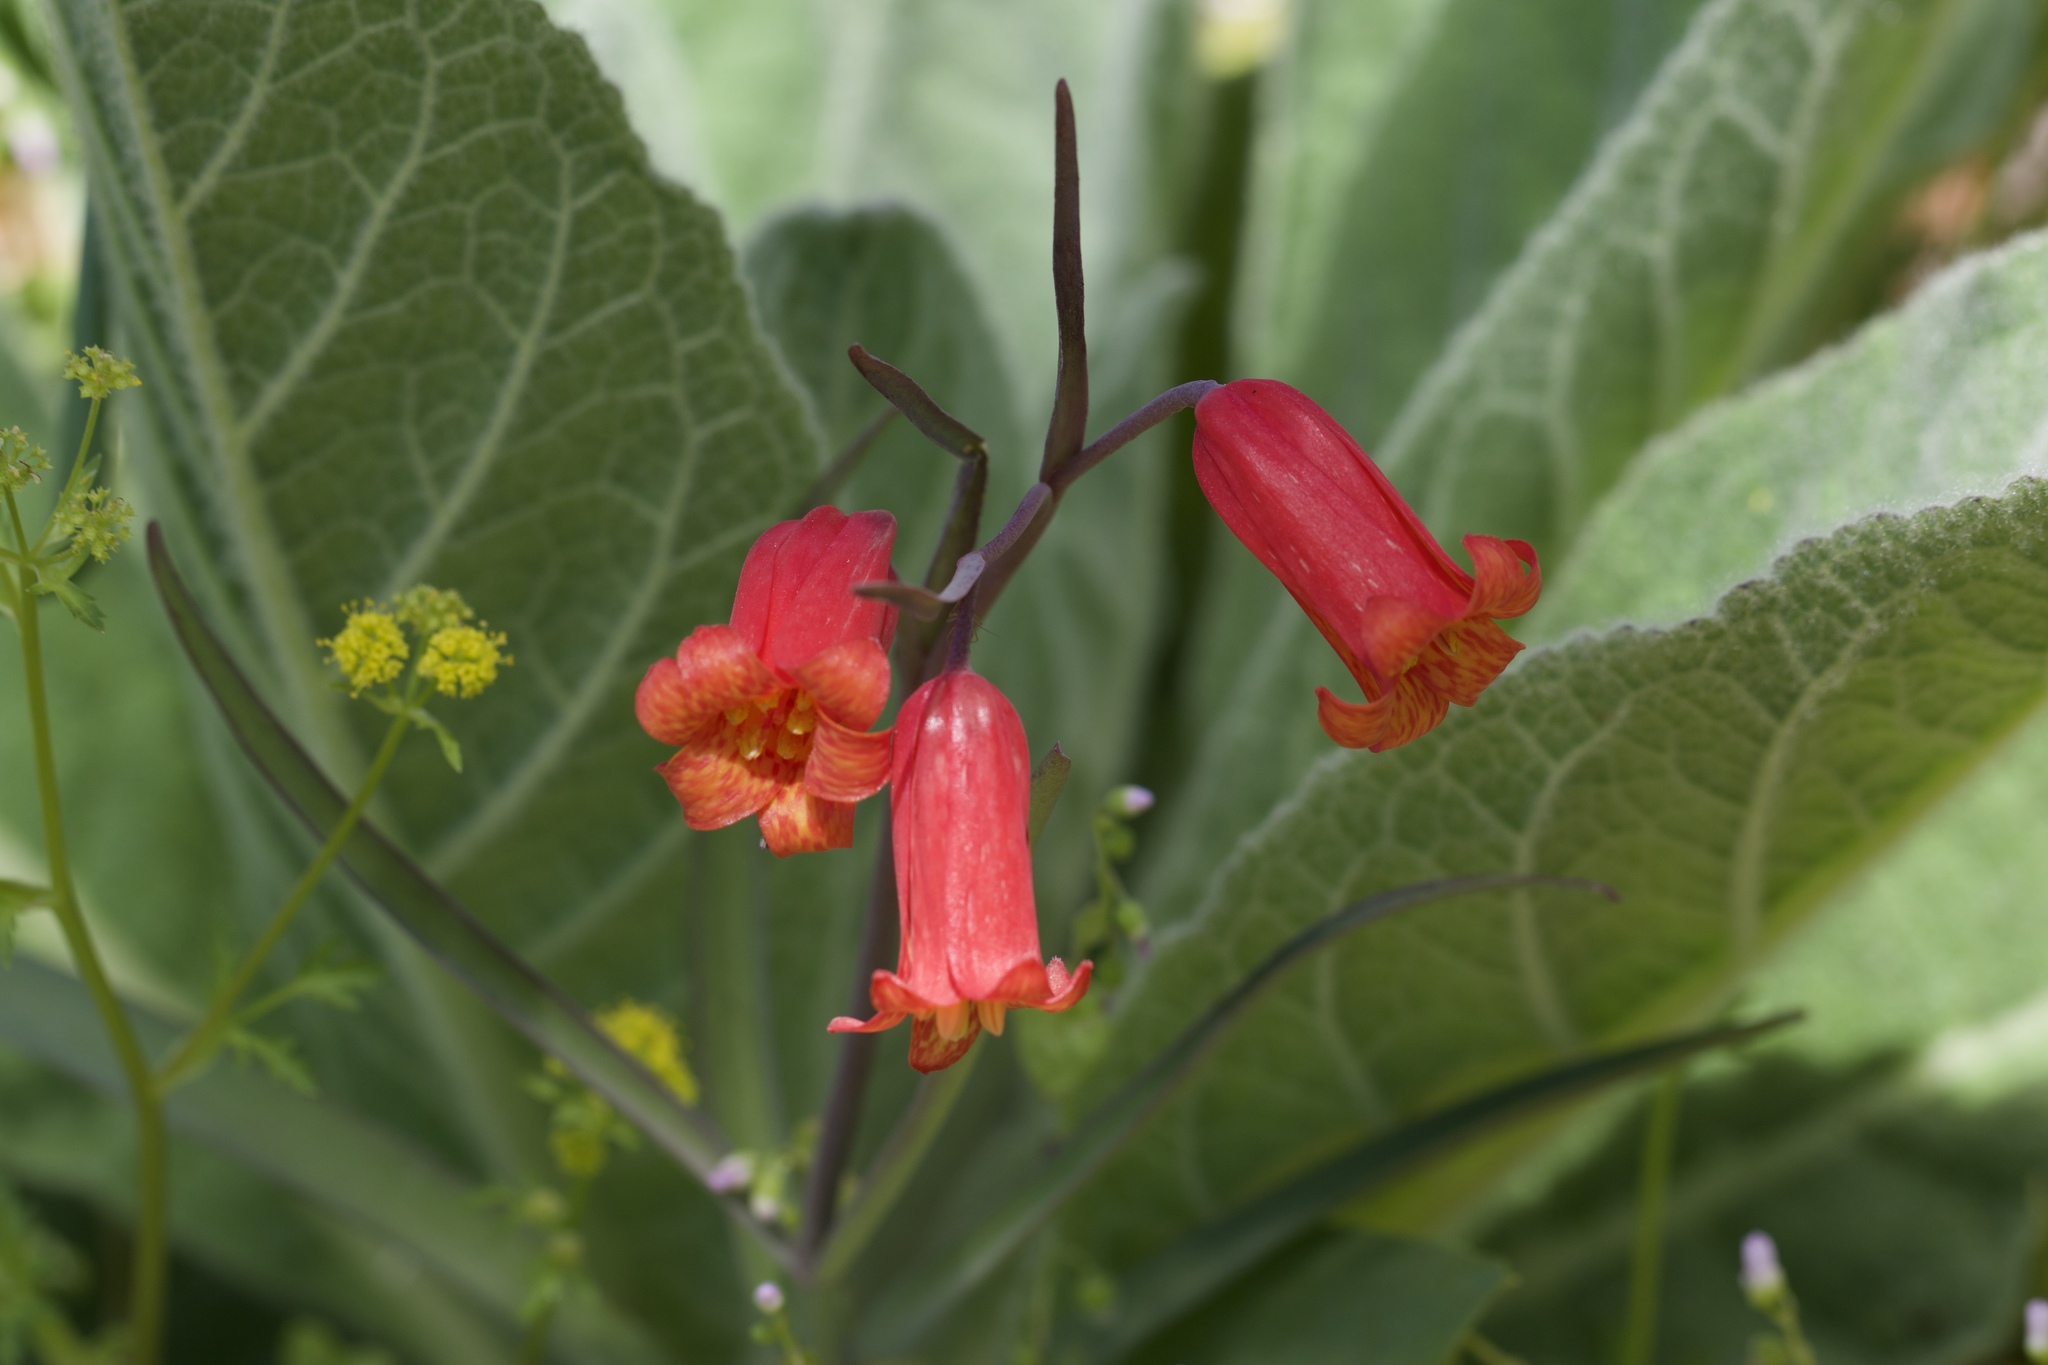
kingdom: Plantae
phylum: Tracheophyta
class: Liliopsida
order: Liliales
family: Liliaceae
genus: Fritillaria
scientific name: Fritillaria recurva
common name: Scarlet fritillary
